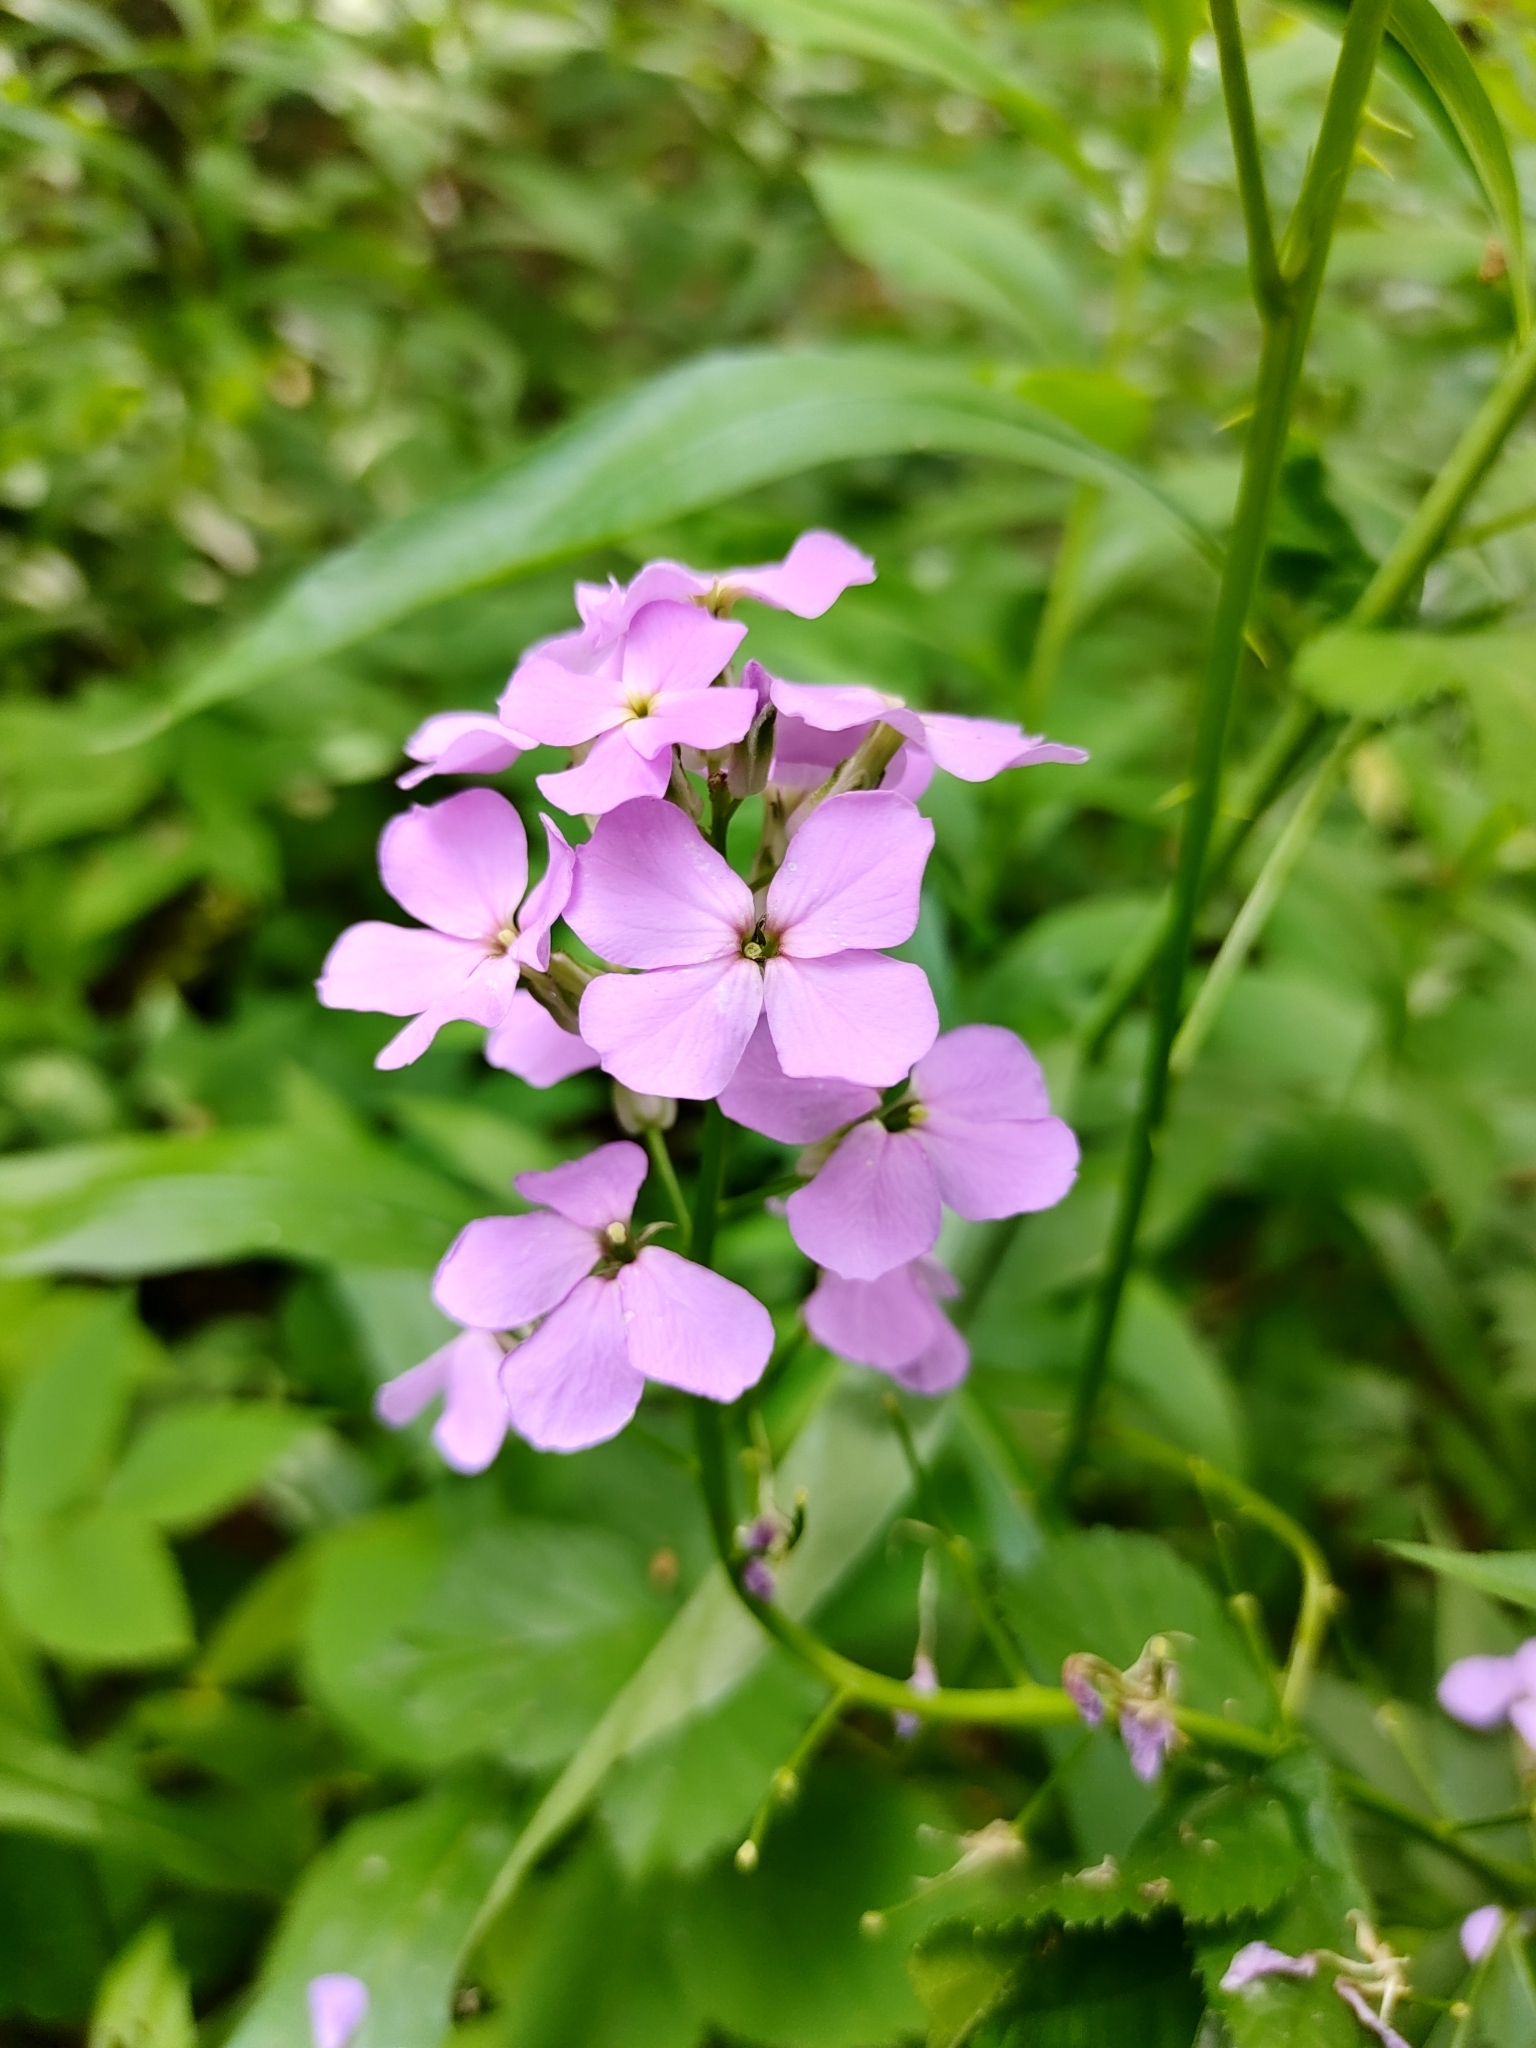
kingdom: Plantae
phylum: Tracheophyta
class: Magnoliopsida
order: Brassicales
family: Brassicaceae
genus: Hesperis
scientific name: Hesperis matronalis
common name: Dame's-violet
